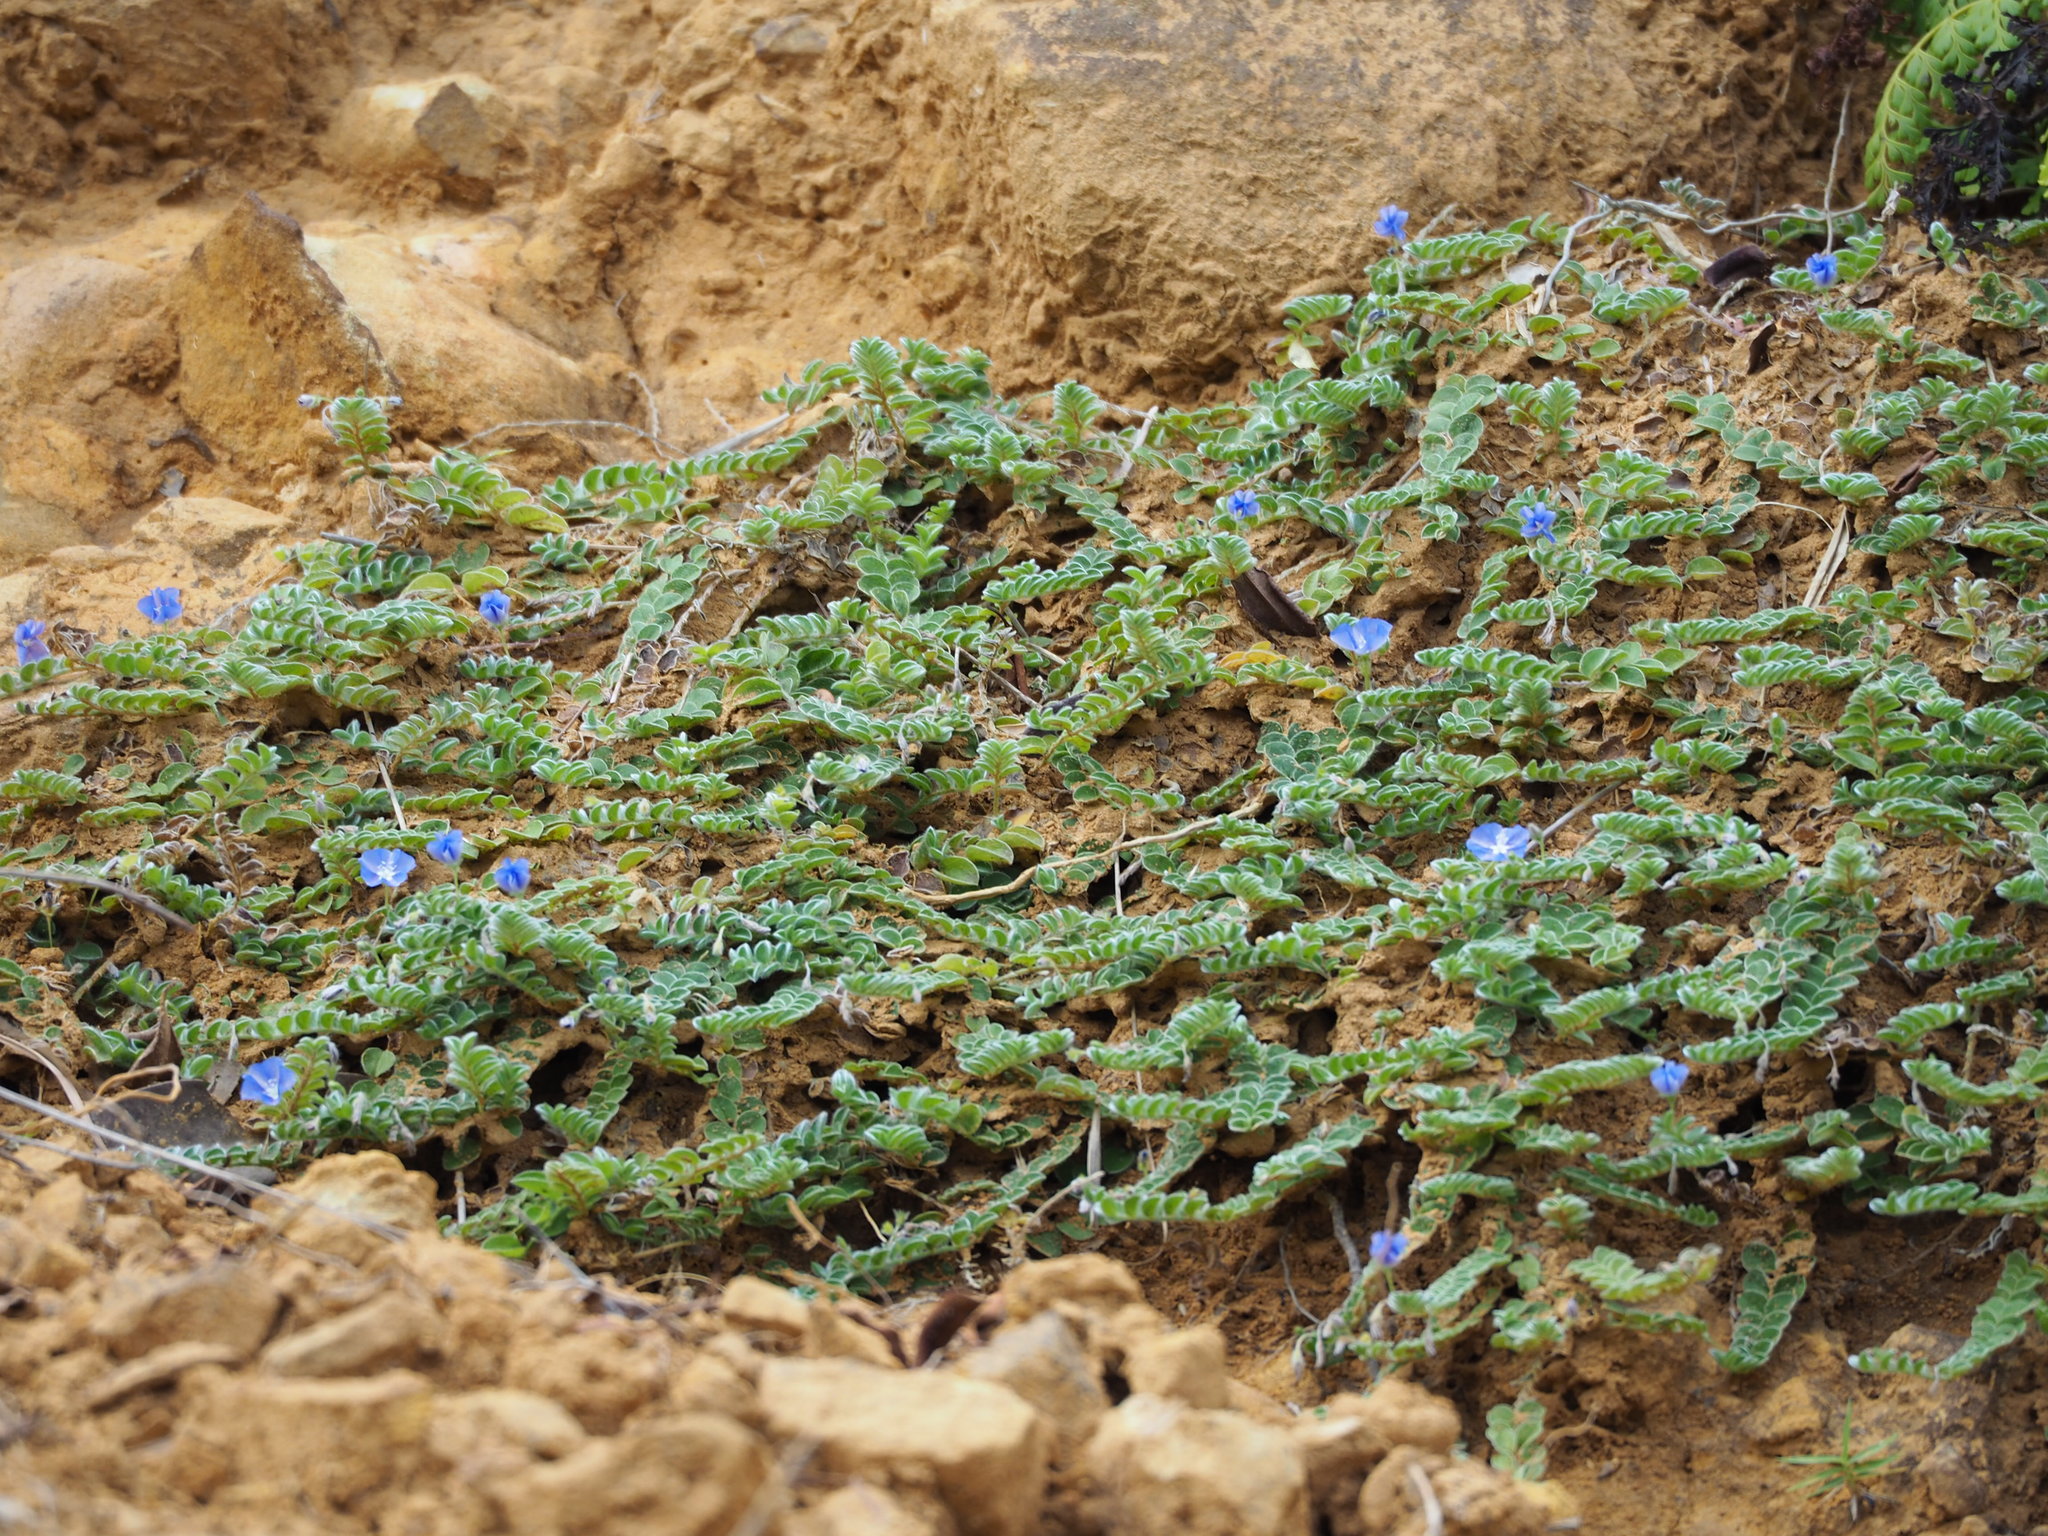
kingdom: Plantae
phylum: Tracheophyta
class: Magnoliopsida
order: Solanales
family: Convolvulaceae
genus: Evolvulus
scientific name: Evolvulus alsinoides
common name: Slender dwarf morning-glory
